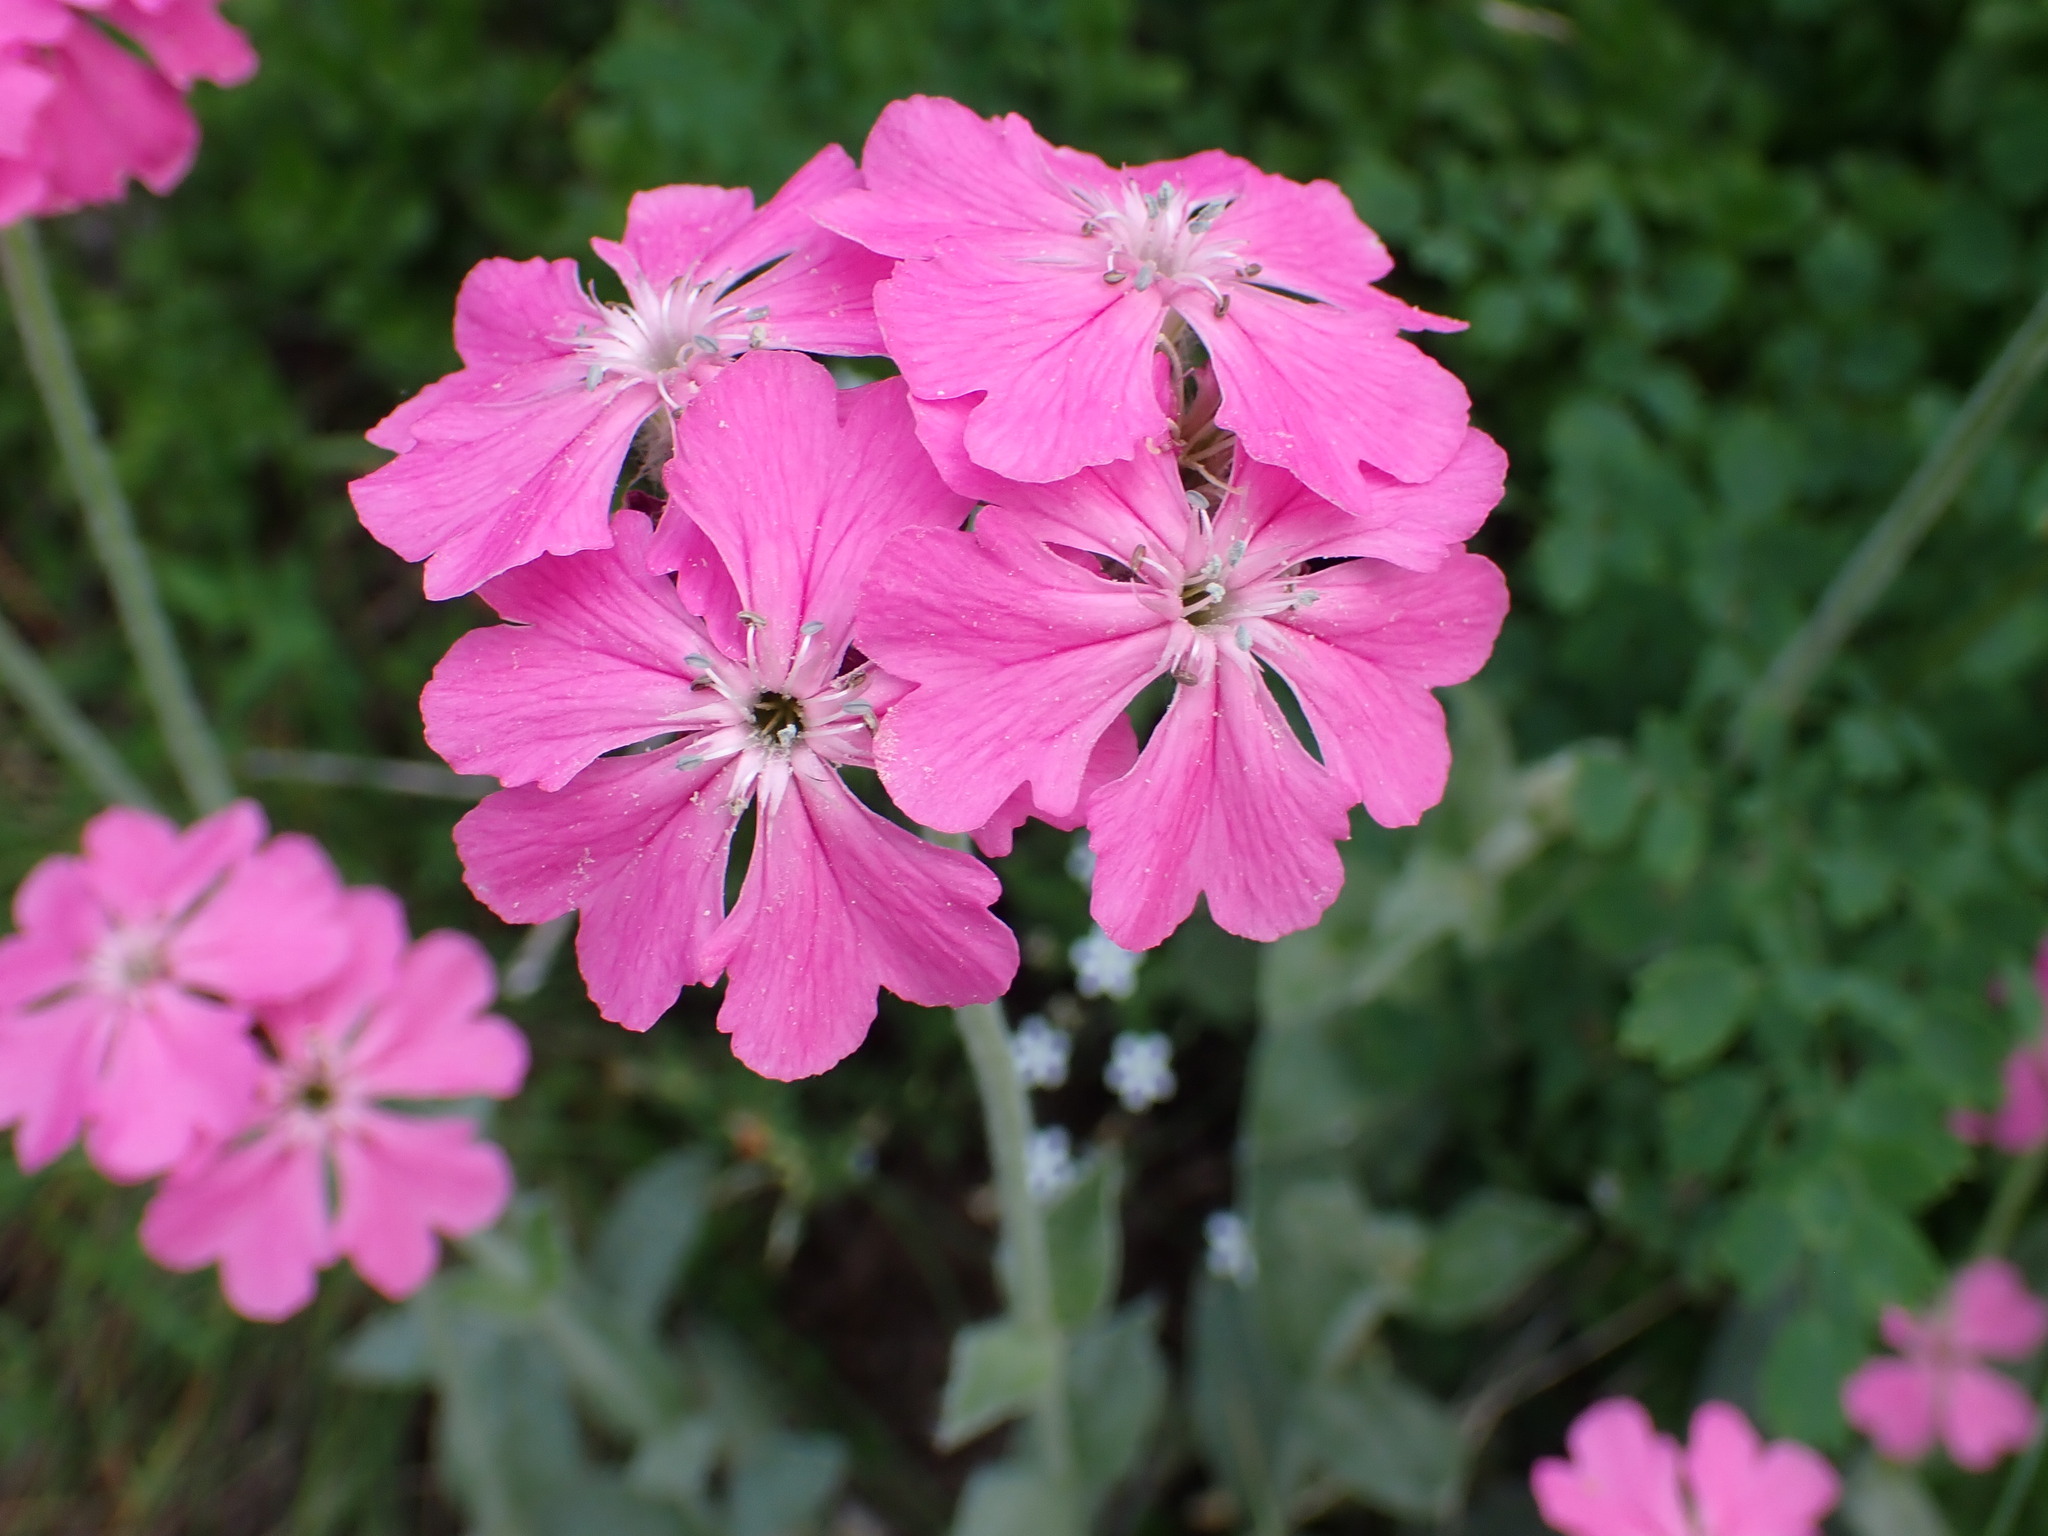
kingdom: Plantae
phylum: Tracheophyta
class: Magnoliopsida
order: Caryophyllales
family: Caryophyllaceae
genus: Silene
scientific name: Silene flos-jovis
